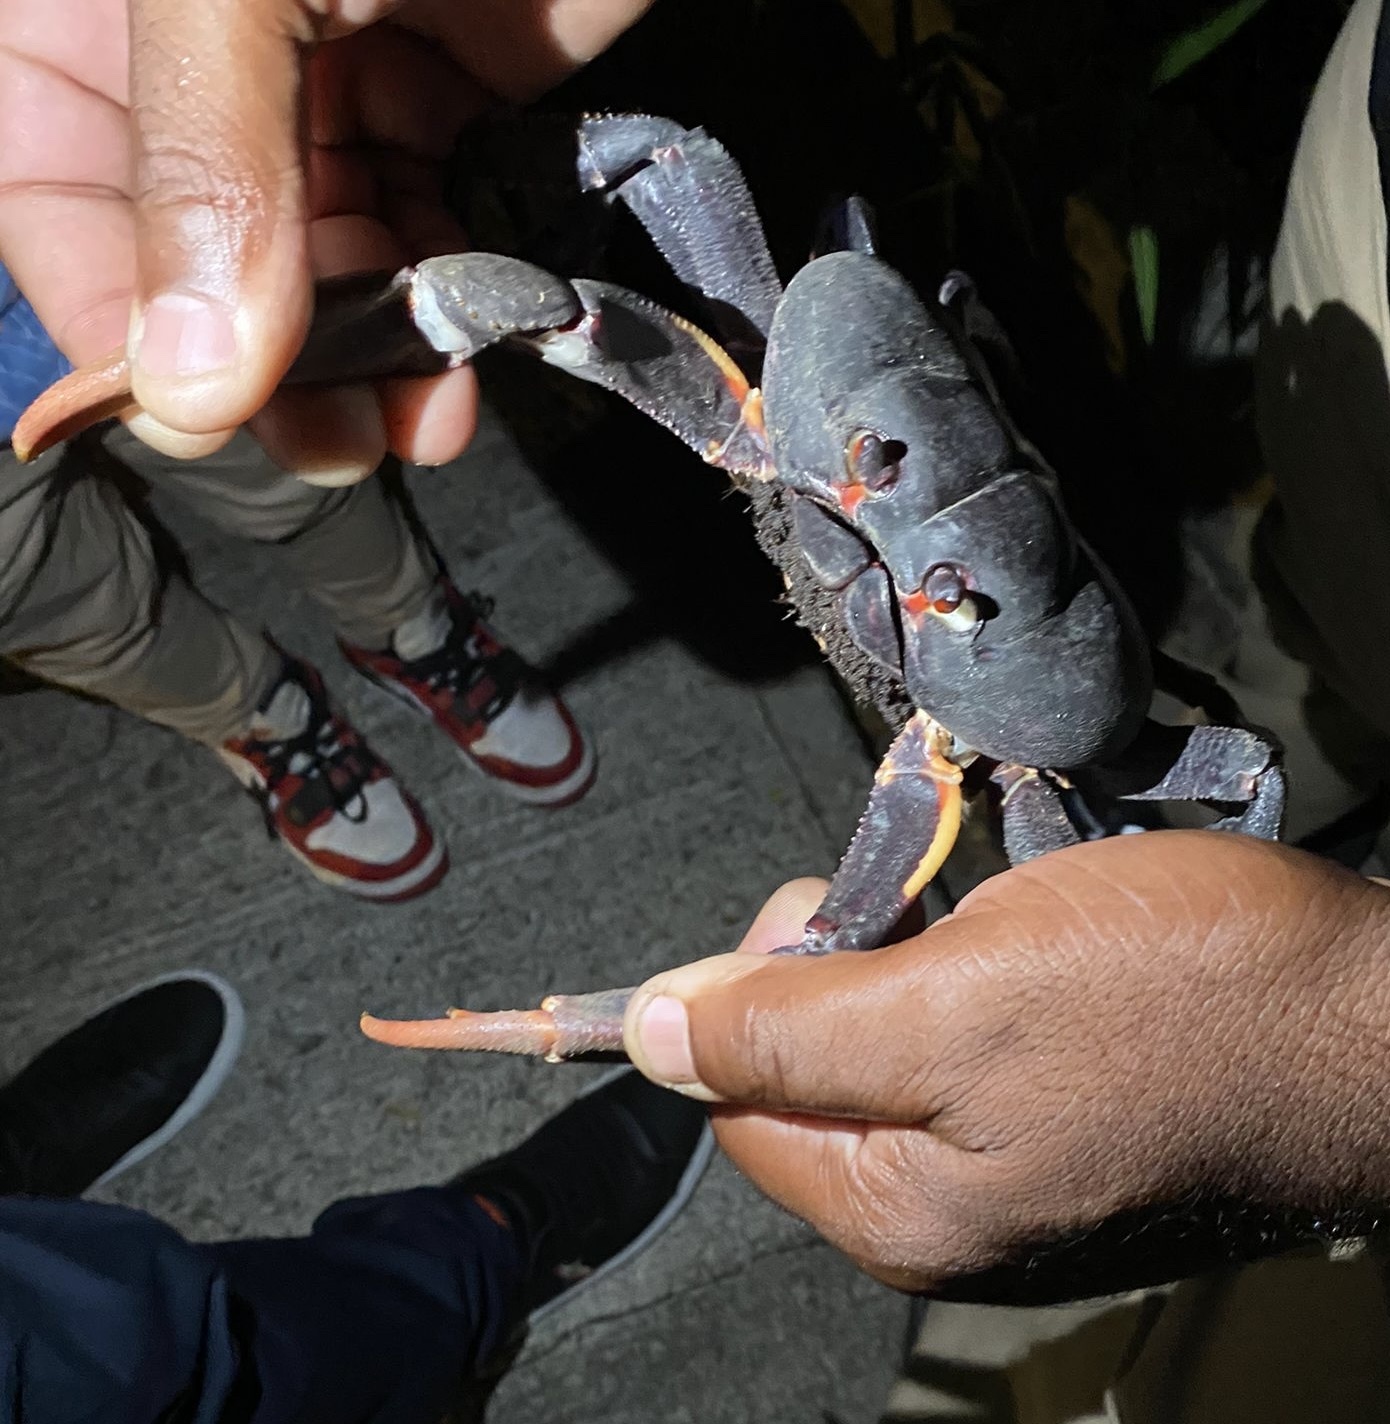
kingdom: Animalia
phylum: Arthropoda
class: Malacostraca
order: Decapoda
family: Gecarcinidae
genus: Gecarcinus
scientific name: Gecarcinus ruricola
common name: Black land crab
